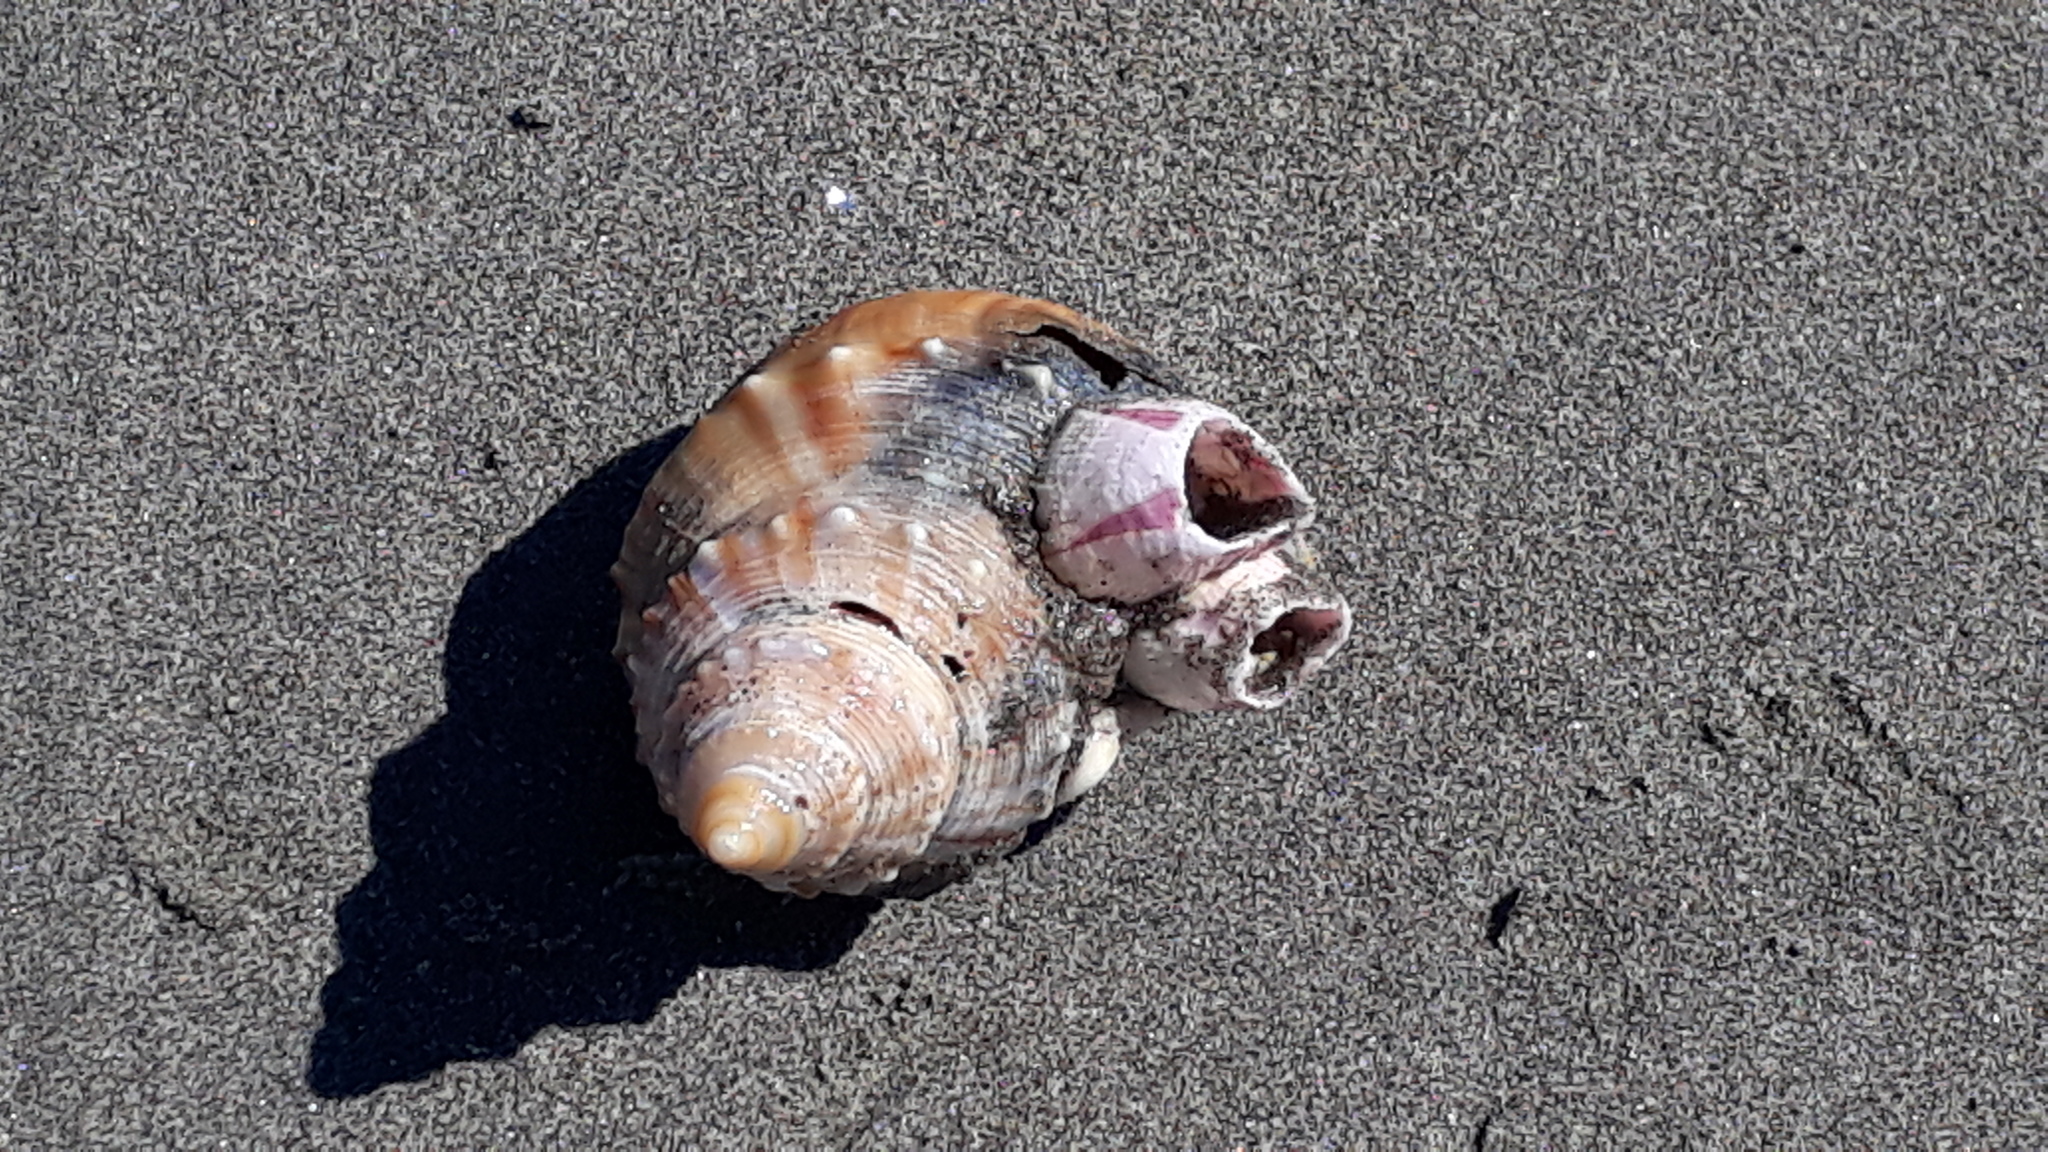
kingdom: Animalia
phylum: Arthropoda
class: Maxillopoda
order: Sessilia
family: Balanidae
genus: Notomegabalanus
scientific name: Notomegabalanus decorus
